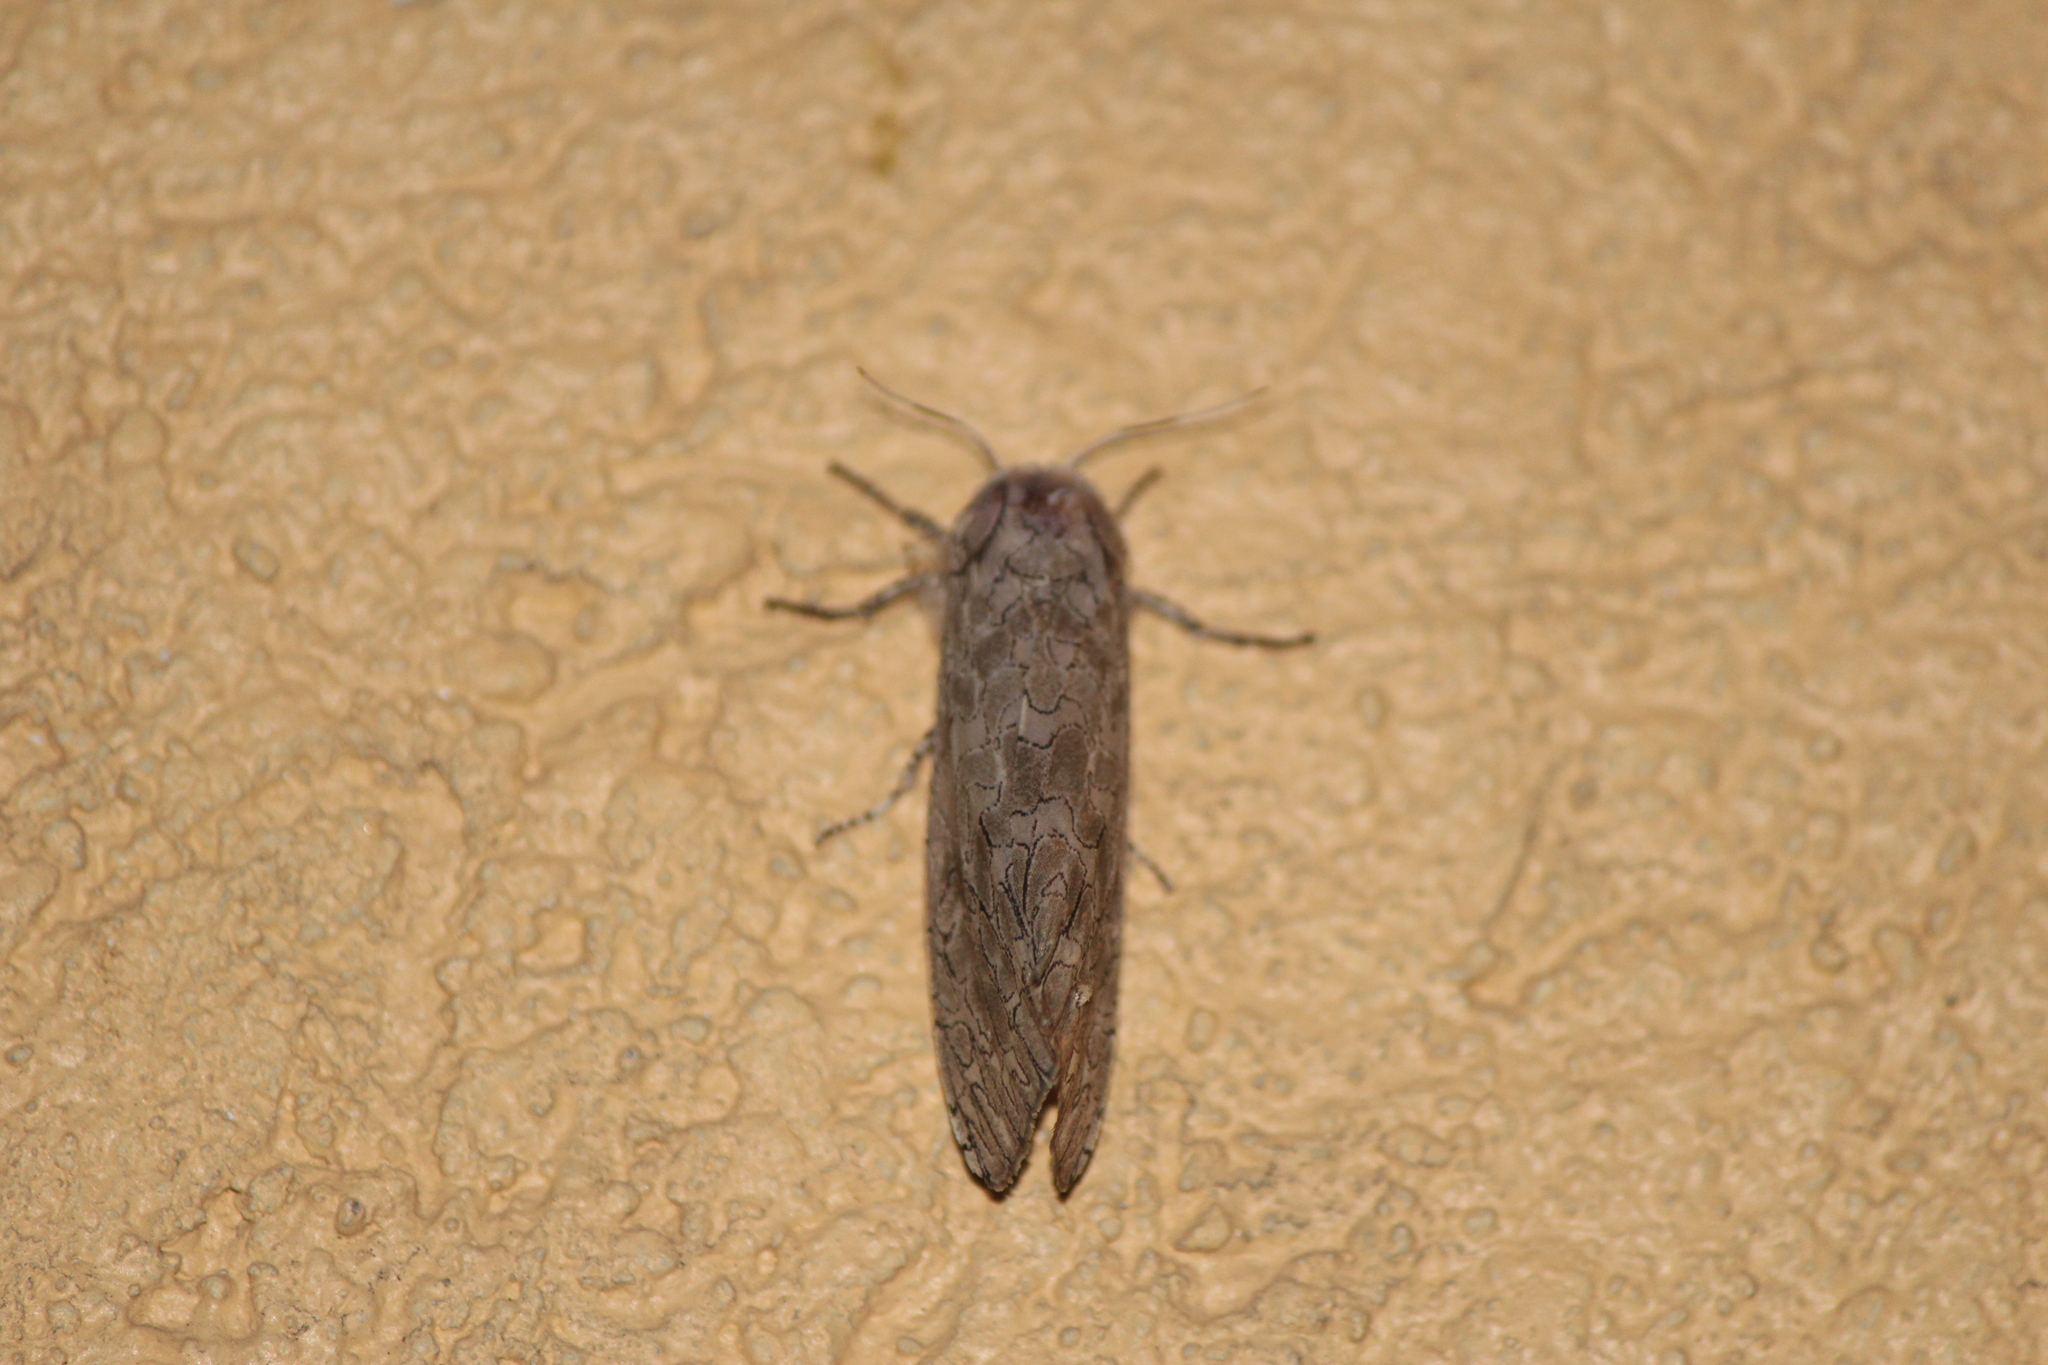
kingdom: Animalia
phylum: Arthropoda
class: Insecta
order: Lepidoptera
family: Erebidae
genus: Hypercompe
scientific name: Hypercompe suffusa
